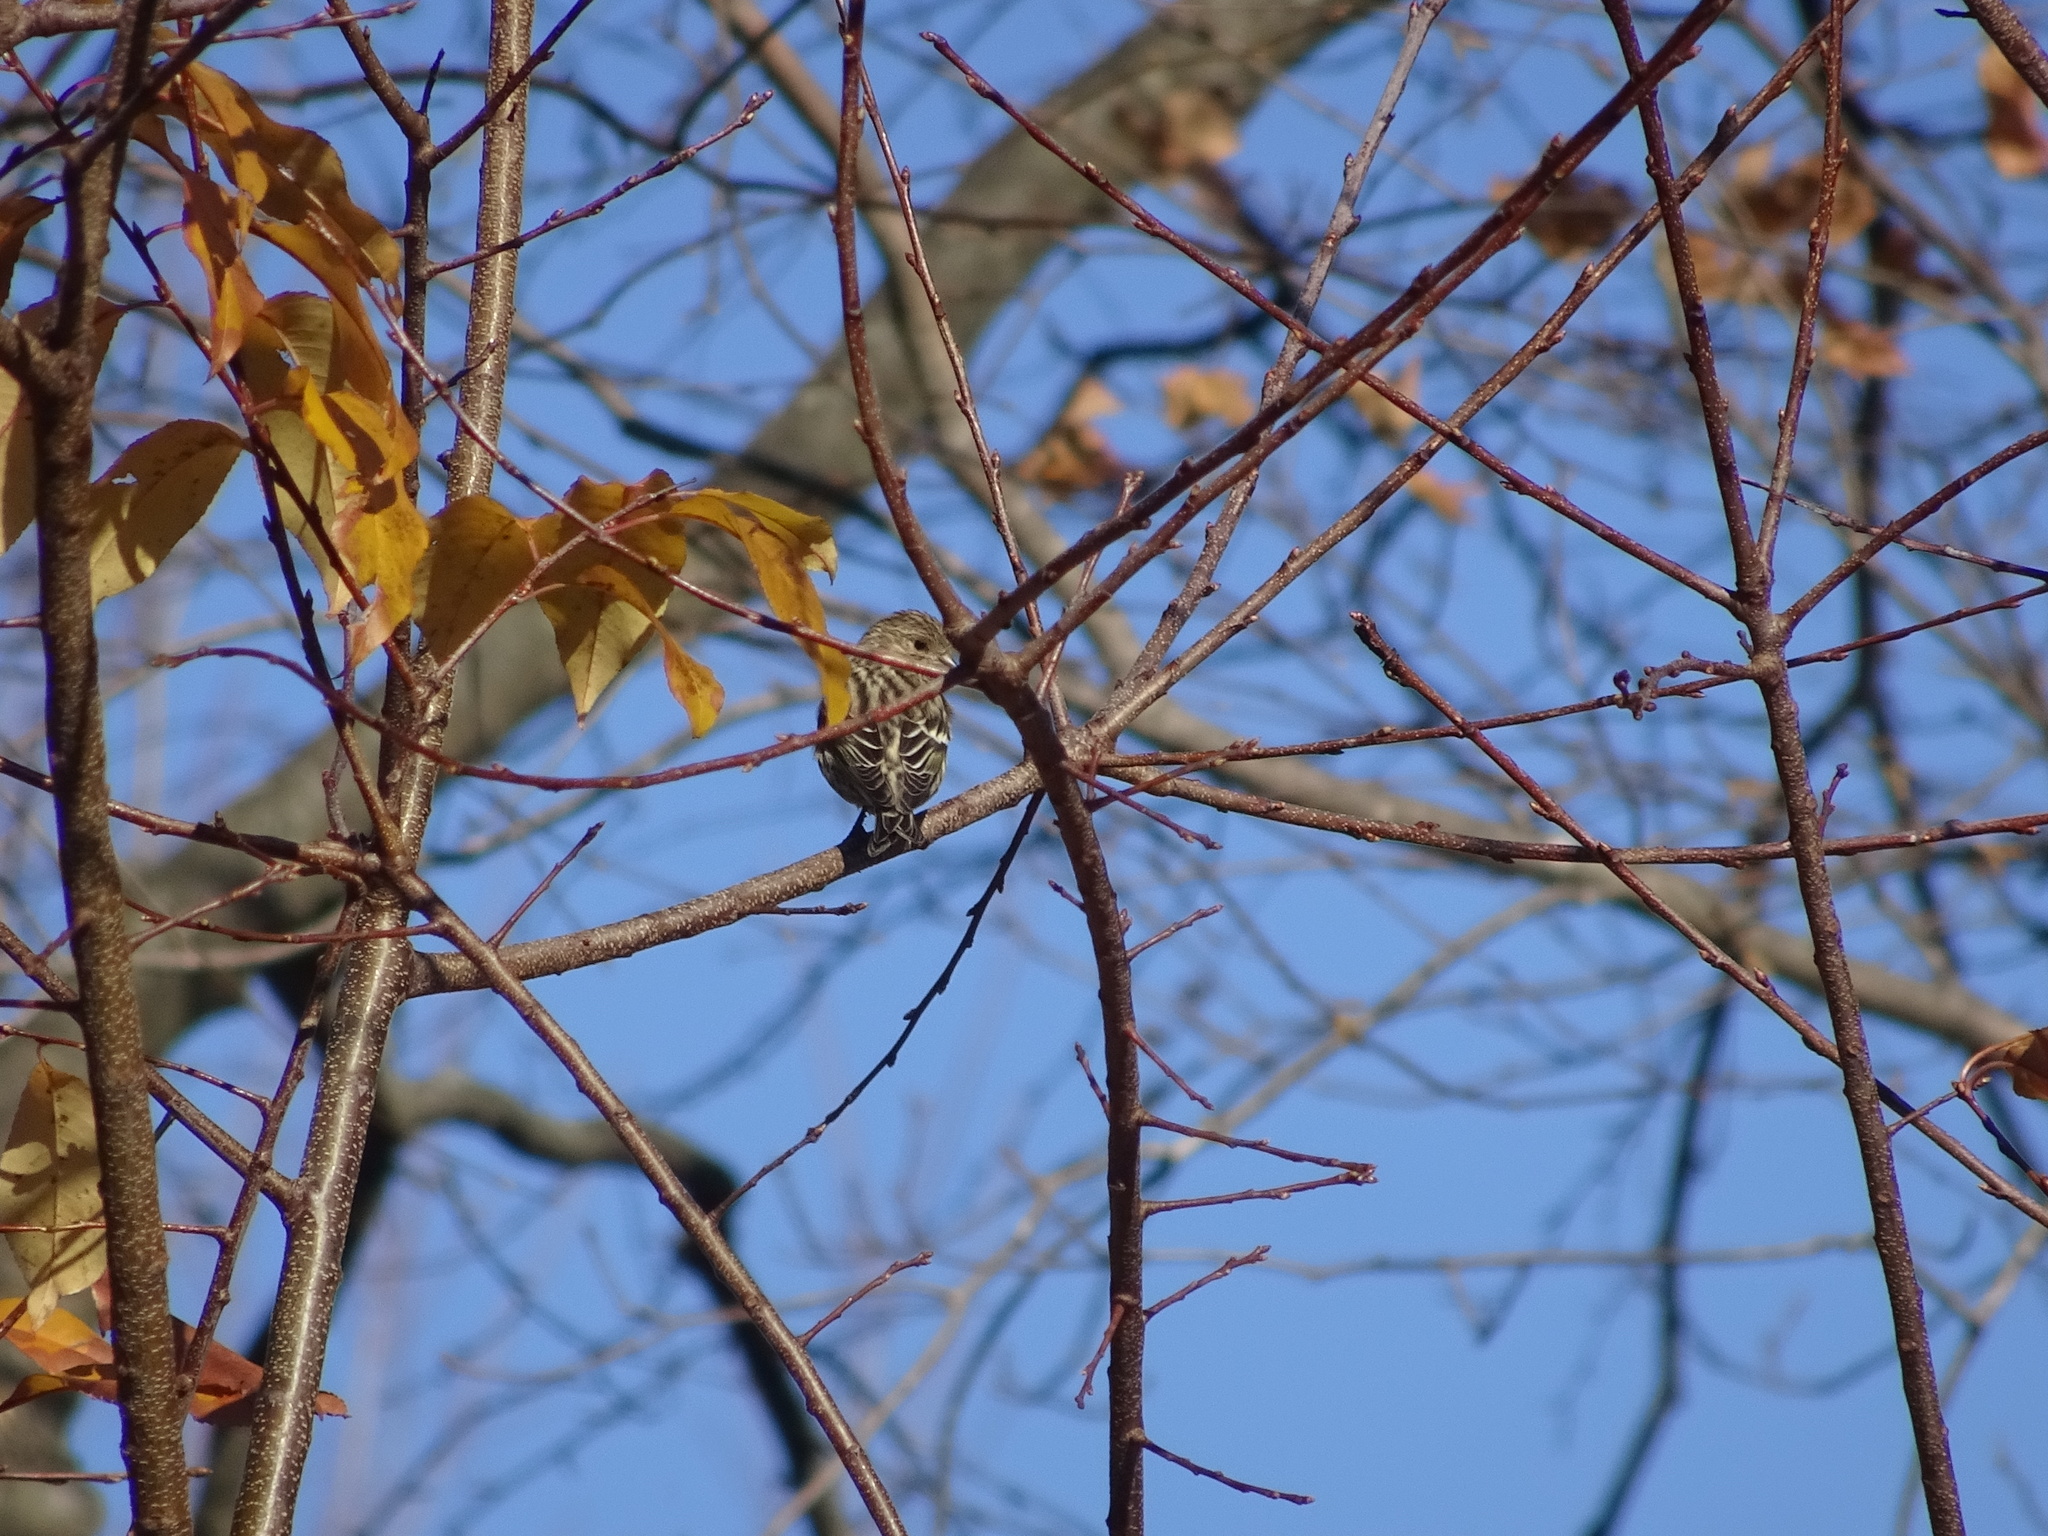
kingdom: Animalia
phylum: Chordata
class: Aves
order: Passeriformes
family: Fringillidae
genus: Spinus
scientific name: Spinus pinus
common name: Pine siskin
